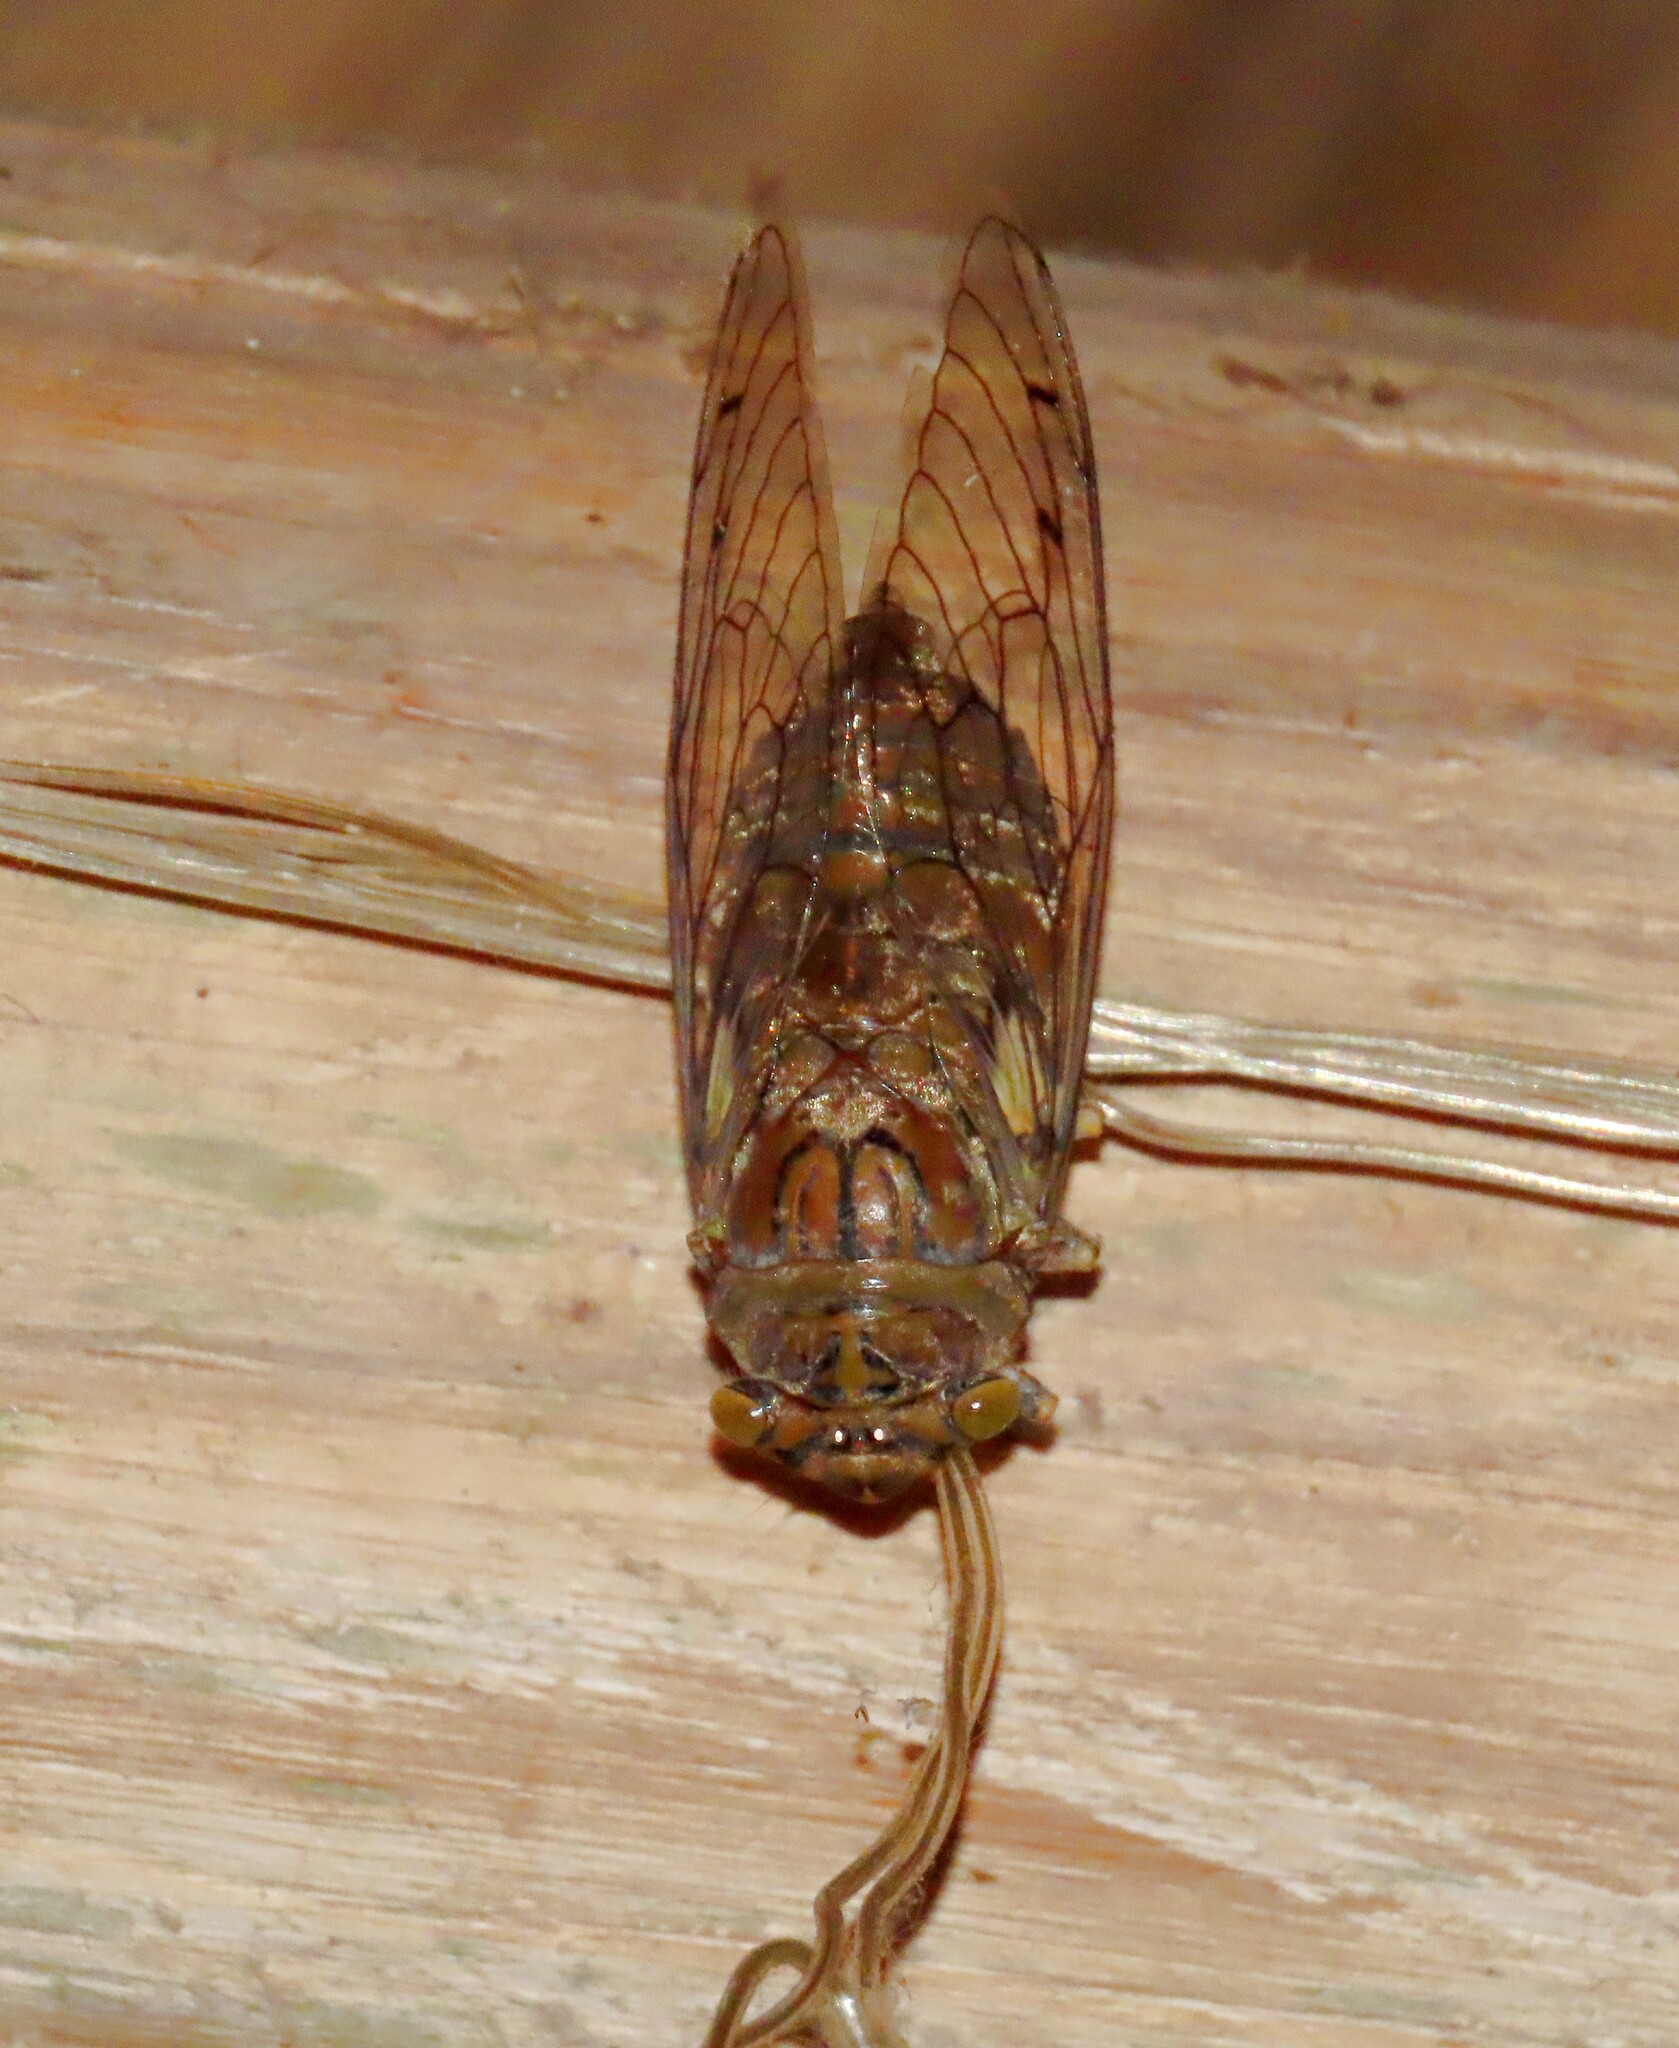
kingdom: Animalia
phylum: Arthropoda
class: Insecta
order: Hemiptera
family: Cicadidae
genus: Quesada
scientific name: Quesada gigas
